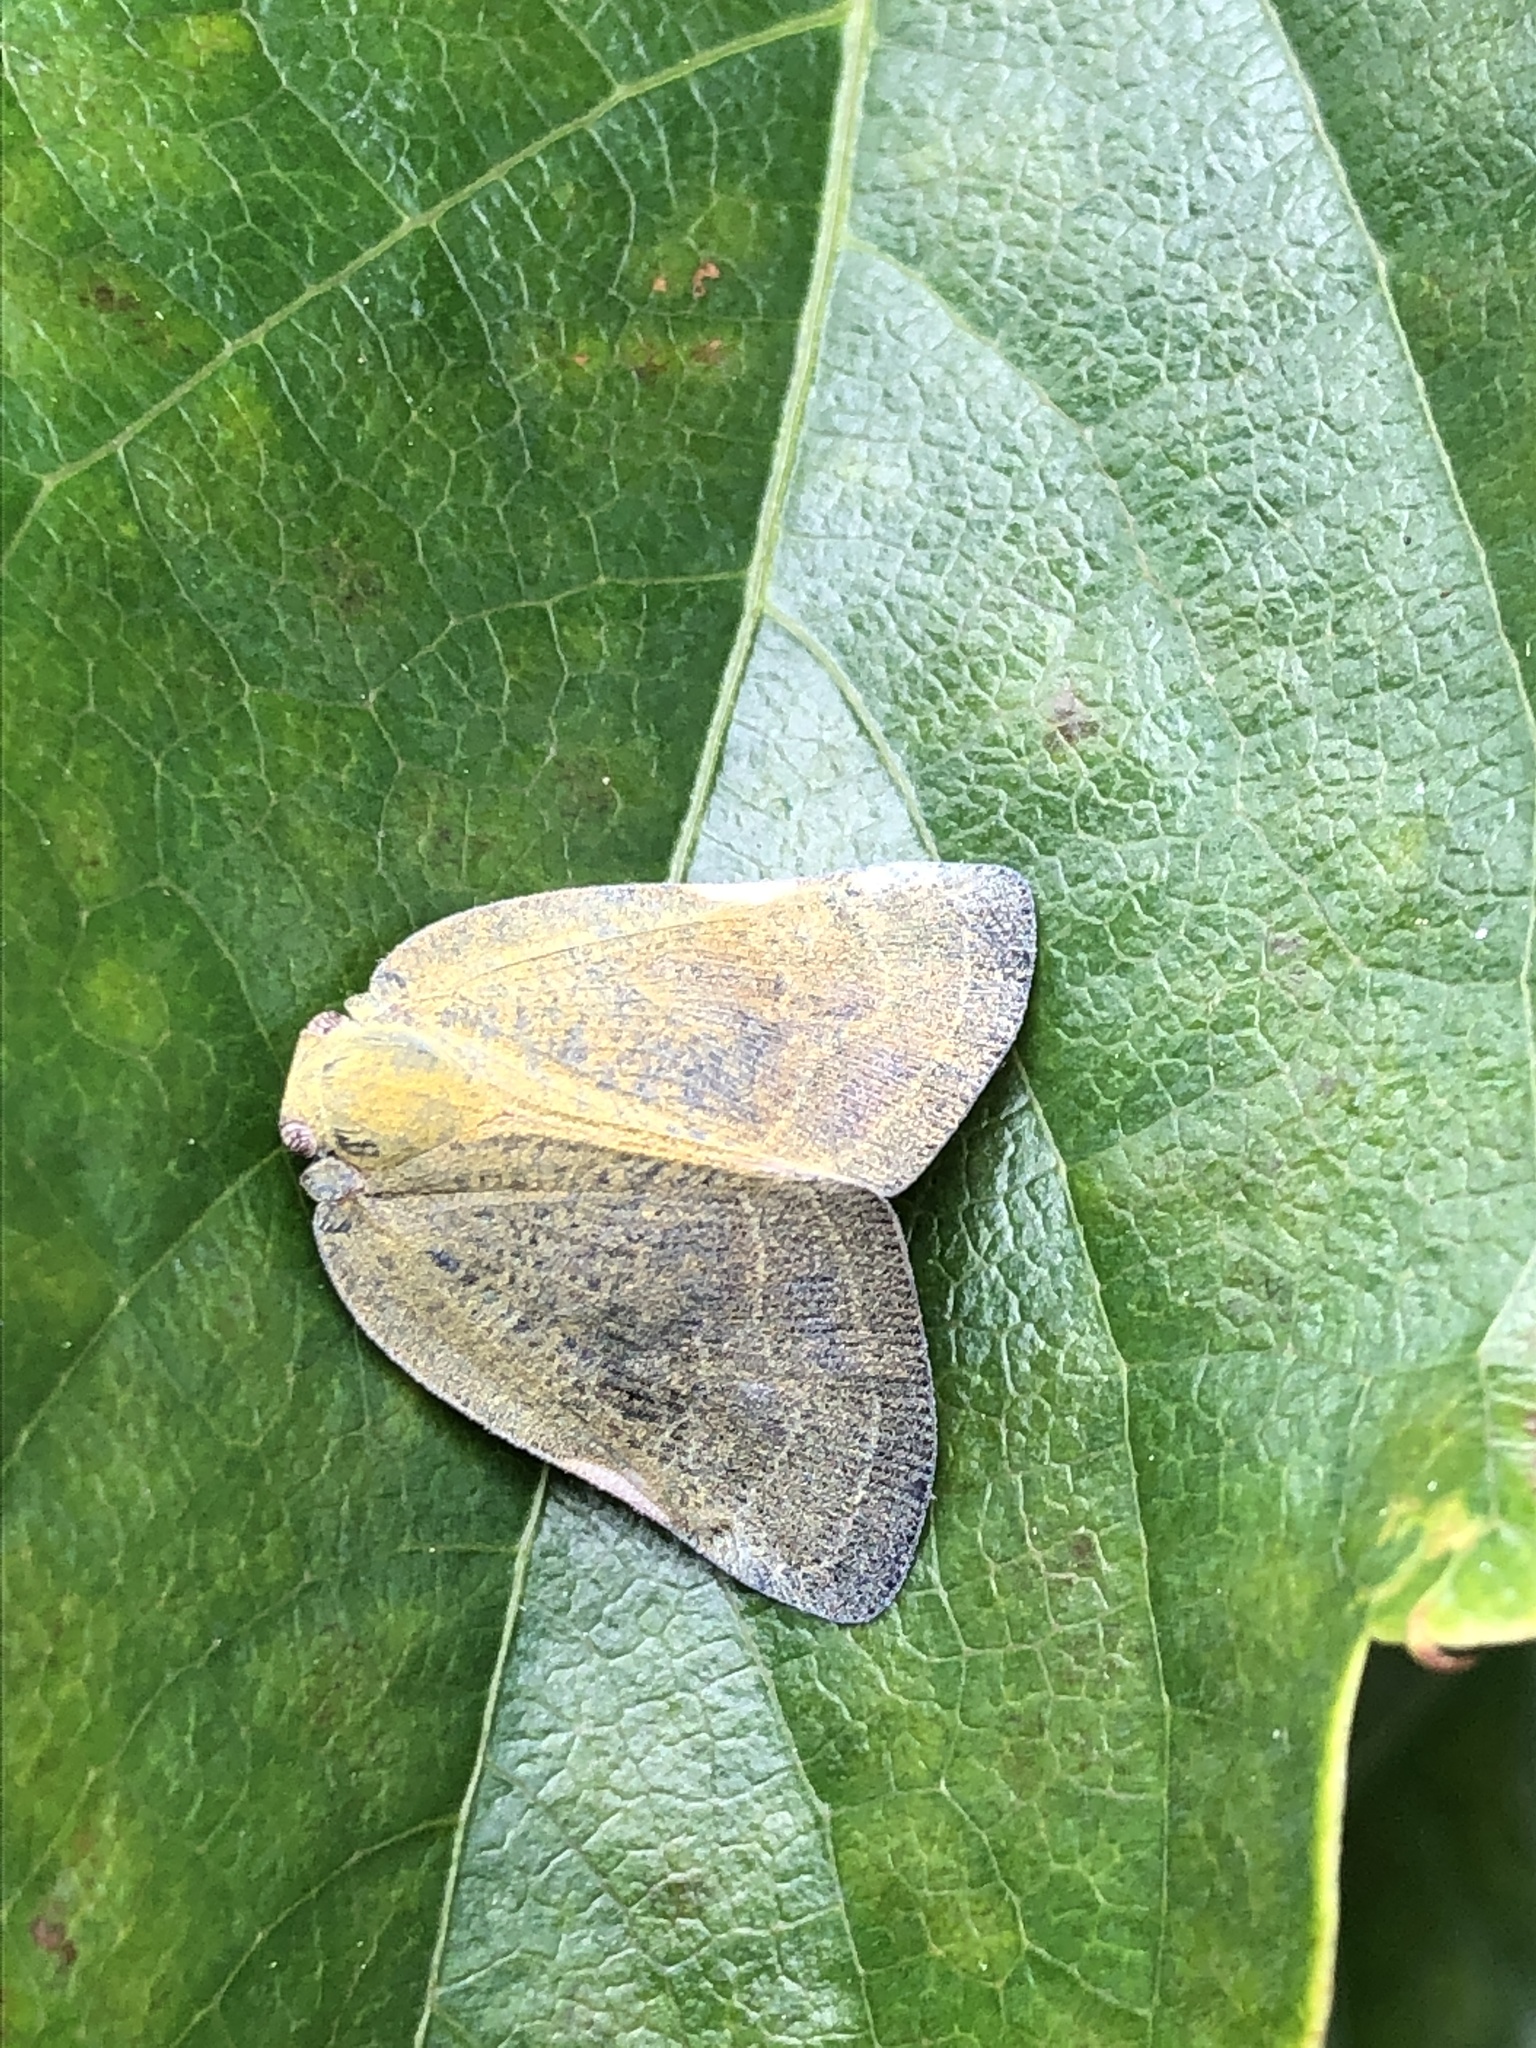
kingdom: Animalia
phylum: Arthropoda
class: Insecta
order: Hemiptera
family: Ricaniidae
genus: Ricanula
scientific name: Ricanula sublimata
